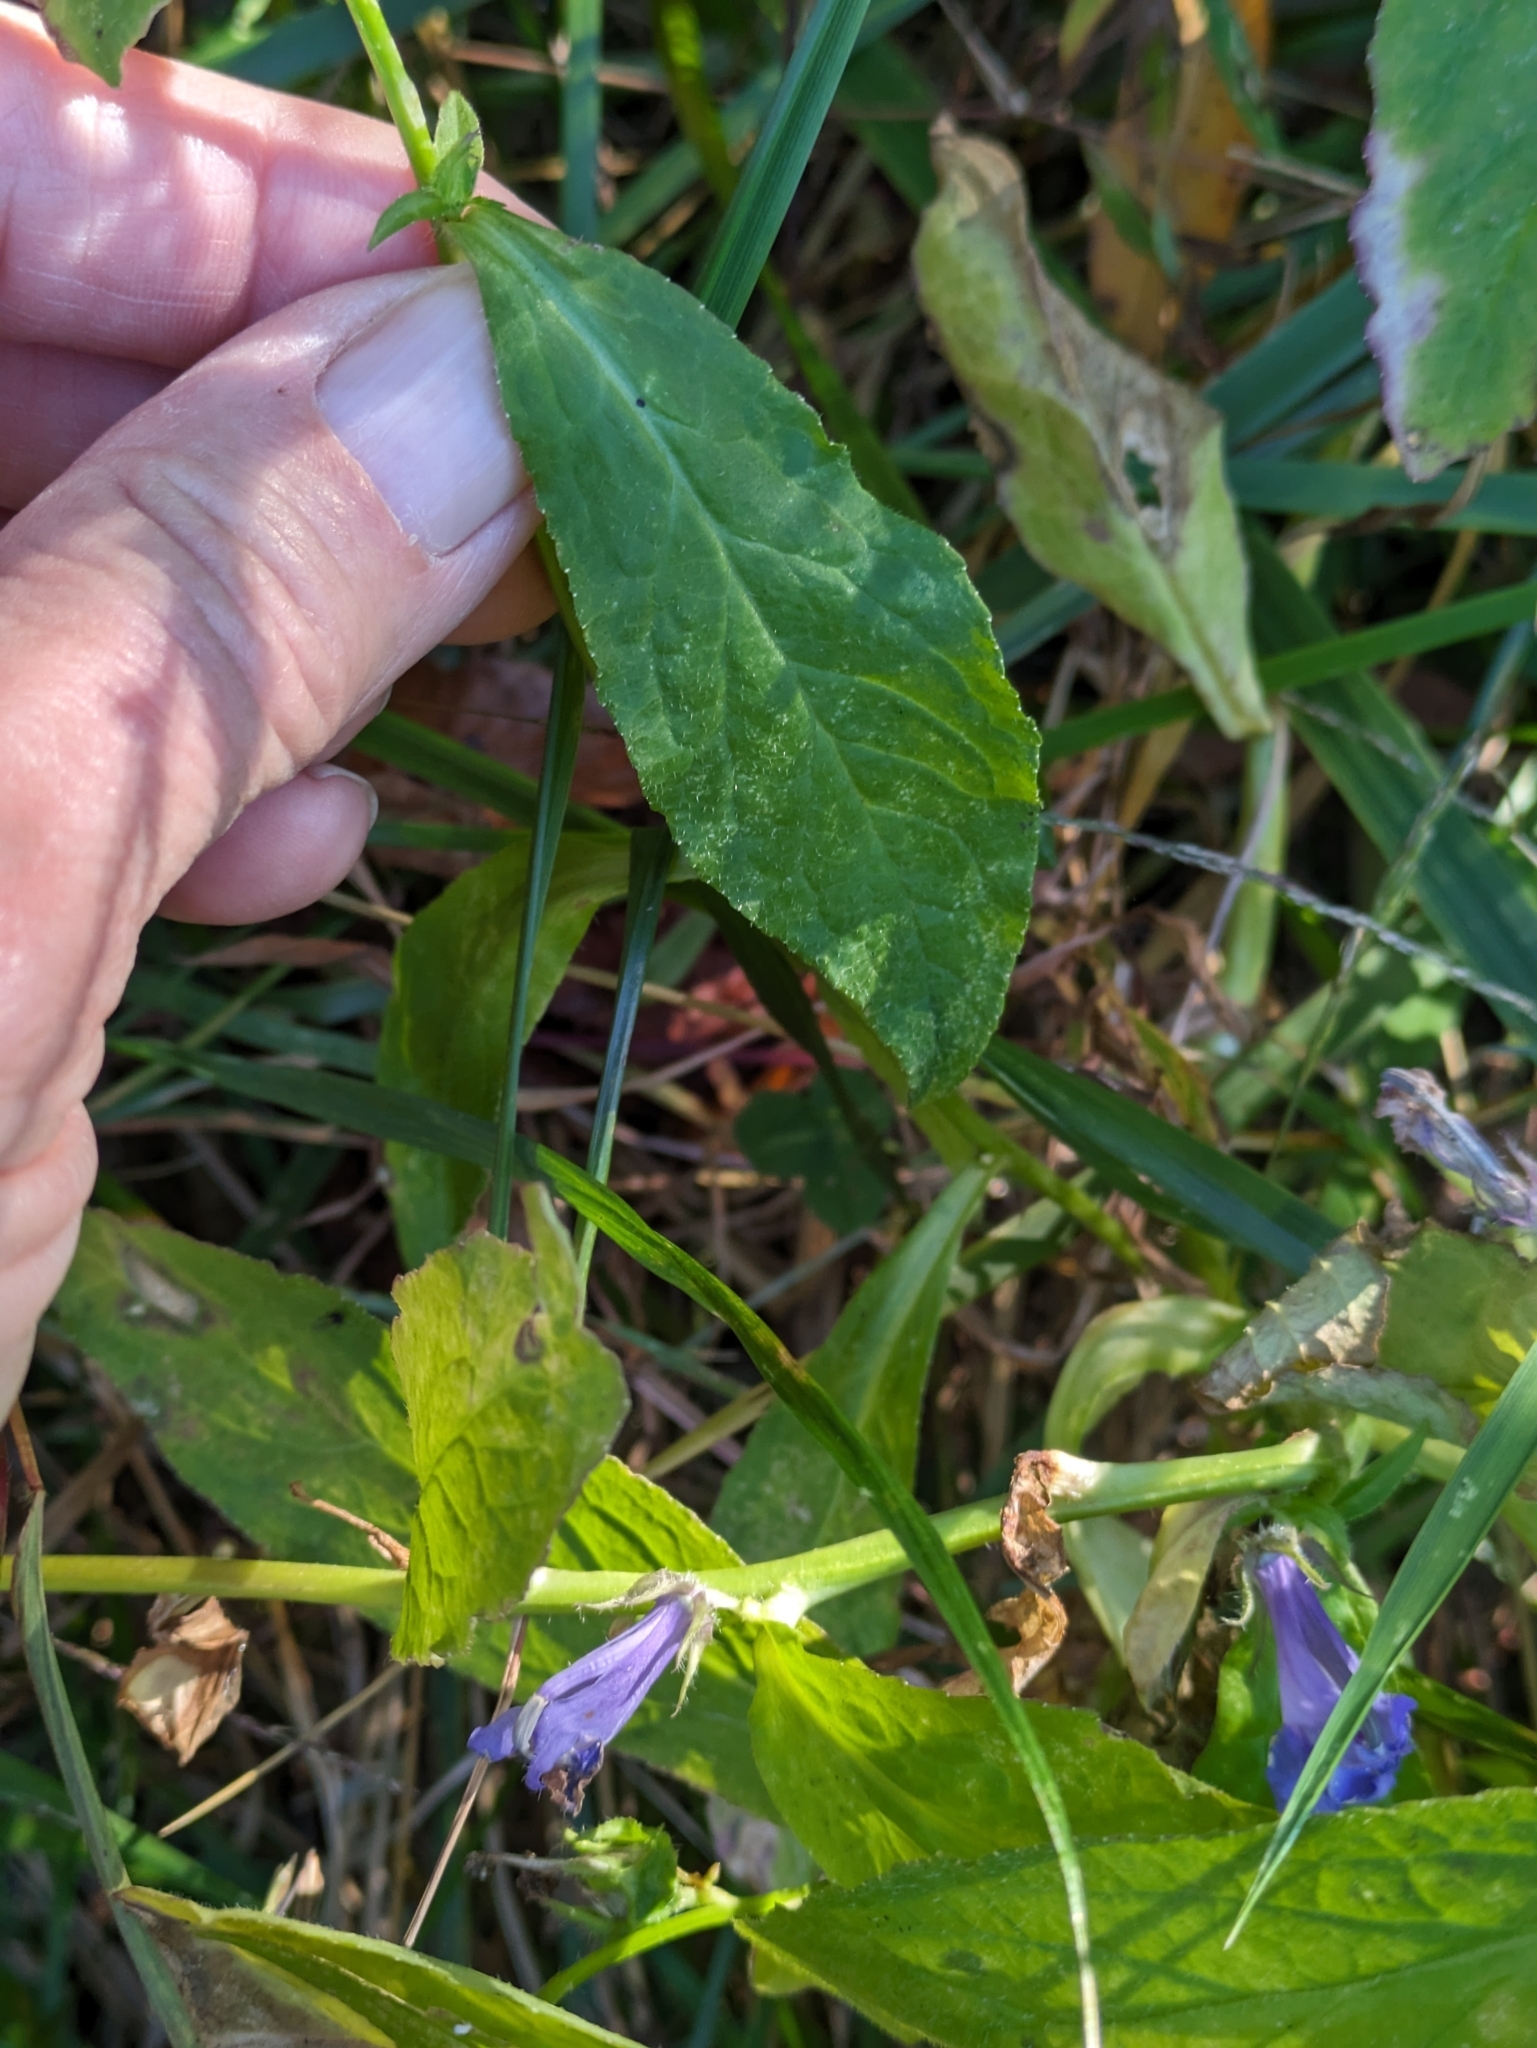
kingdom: Plantae
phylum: Tracheophyta
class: Magnoliopsida
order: Asterales
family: Campanulaceae
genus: Lobelia
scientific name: Lobelia siphilitica
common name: Great lobelia
